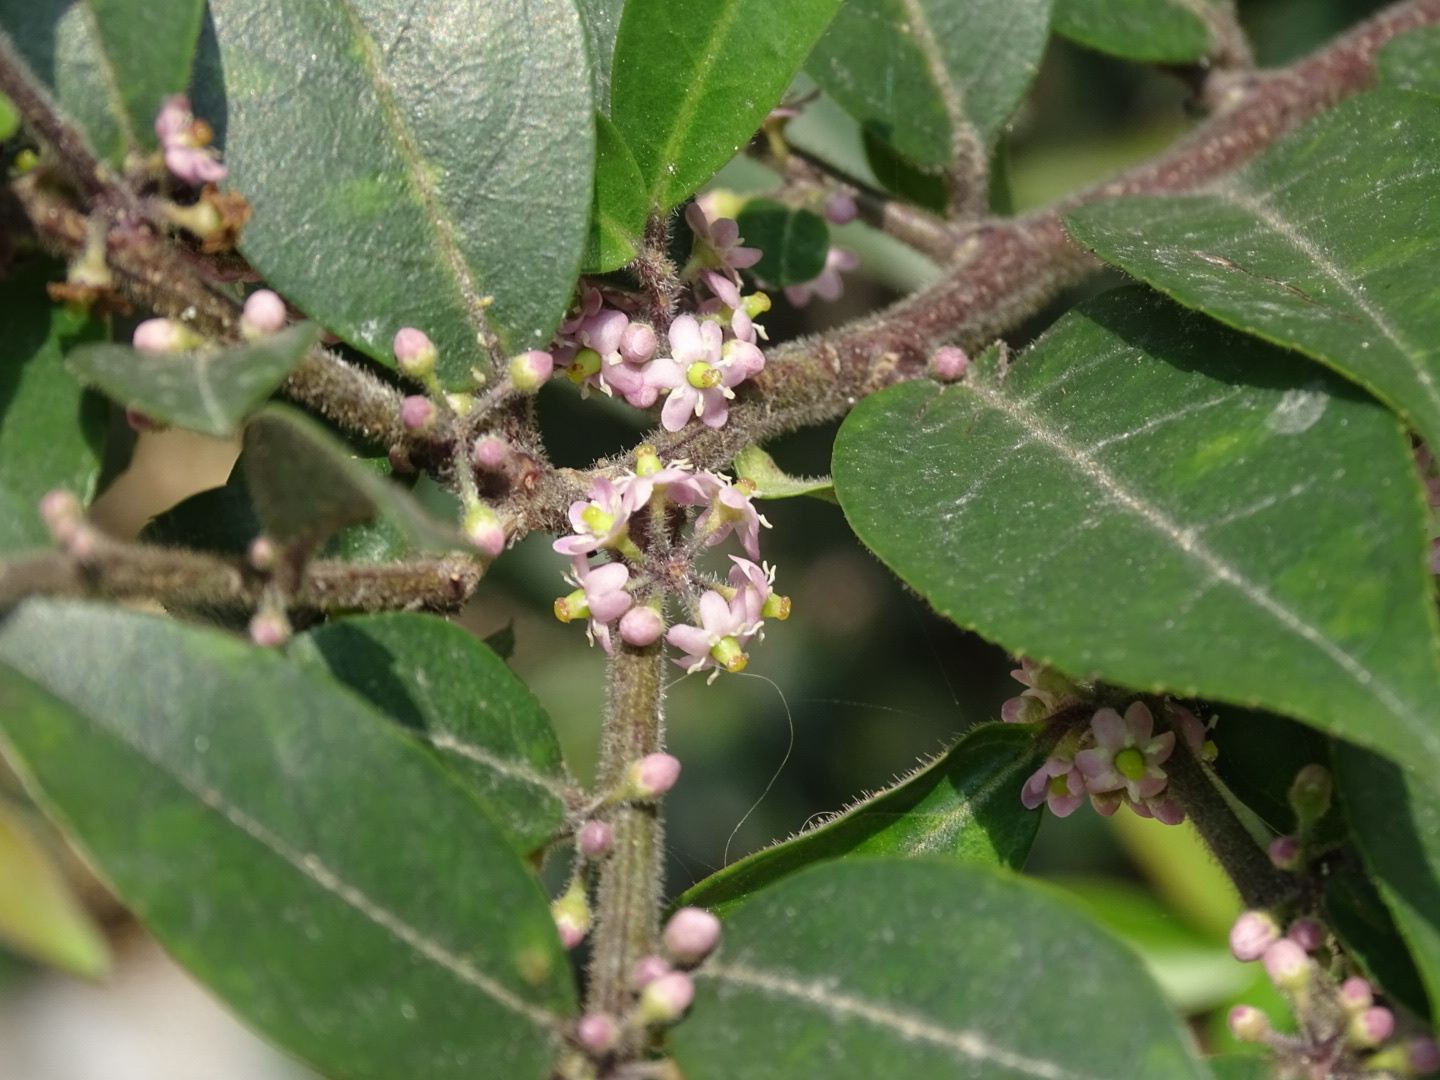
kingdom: Plantae
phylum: Tracheophyta
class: Magnoliopsida
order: Aquifoliales
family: Aquifoliaceae
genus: Ilex
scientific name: Ilex pubescens
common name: Pubescent holly
